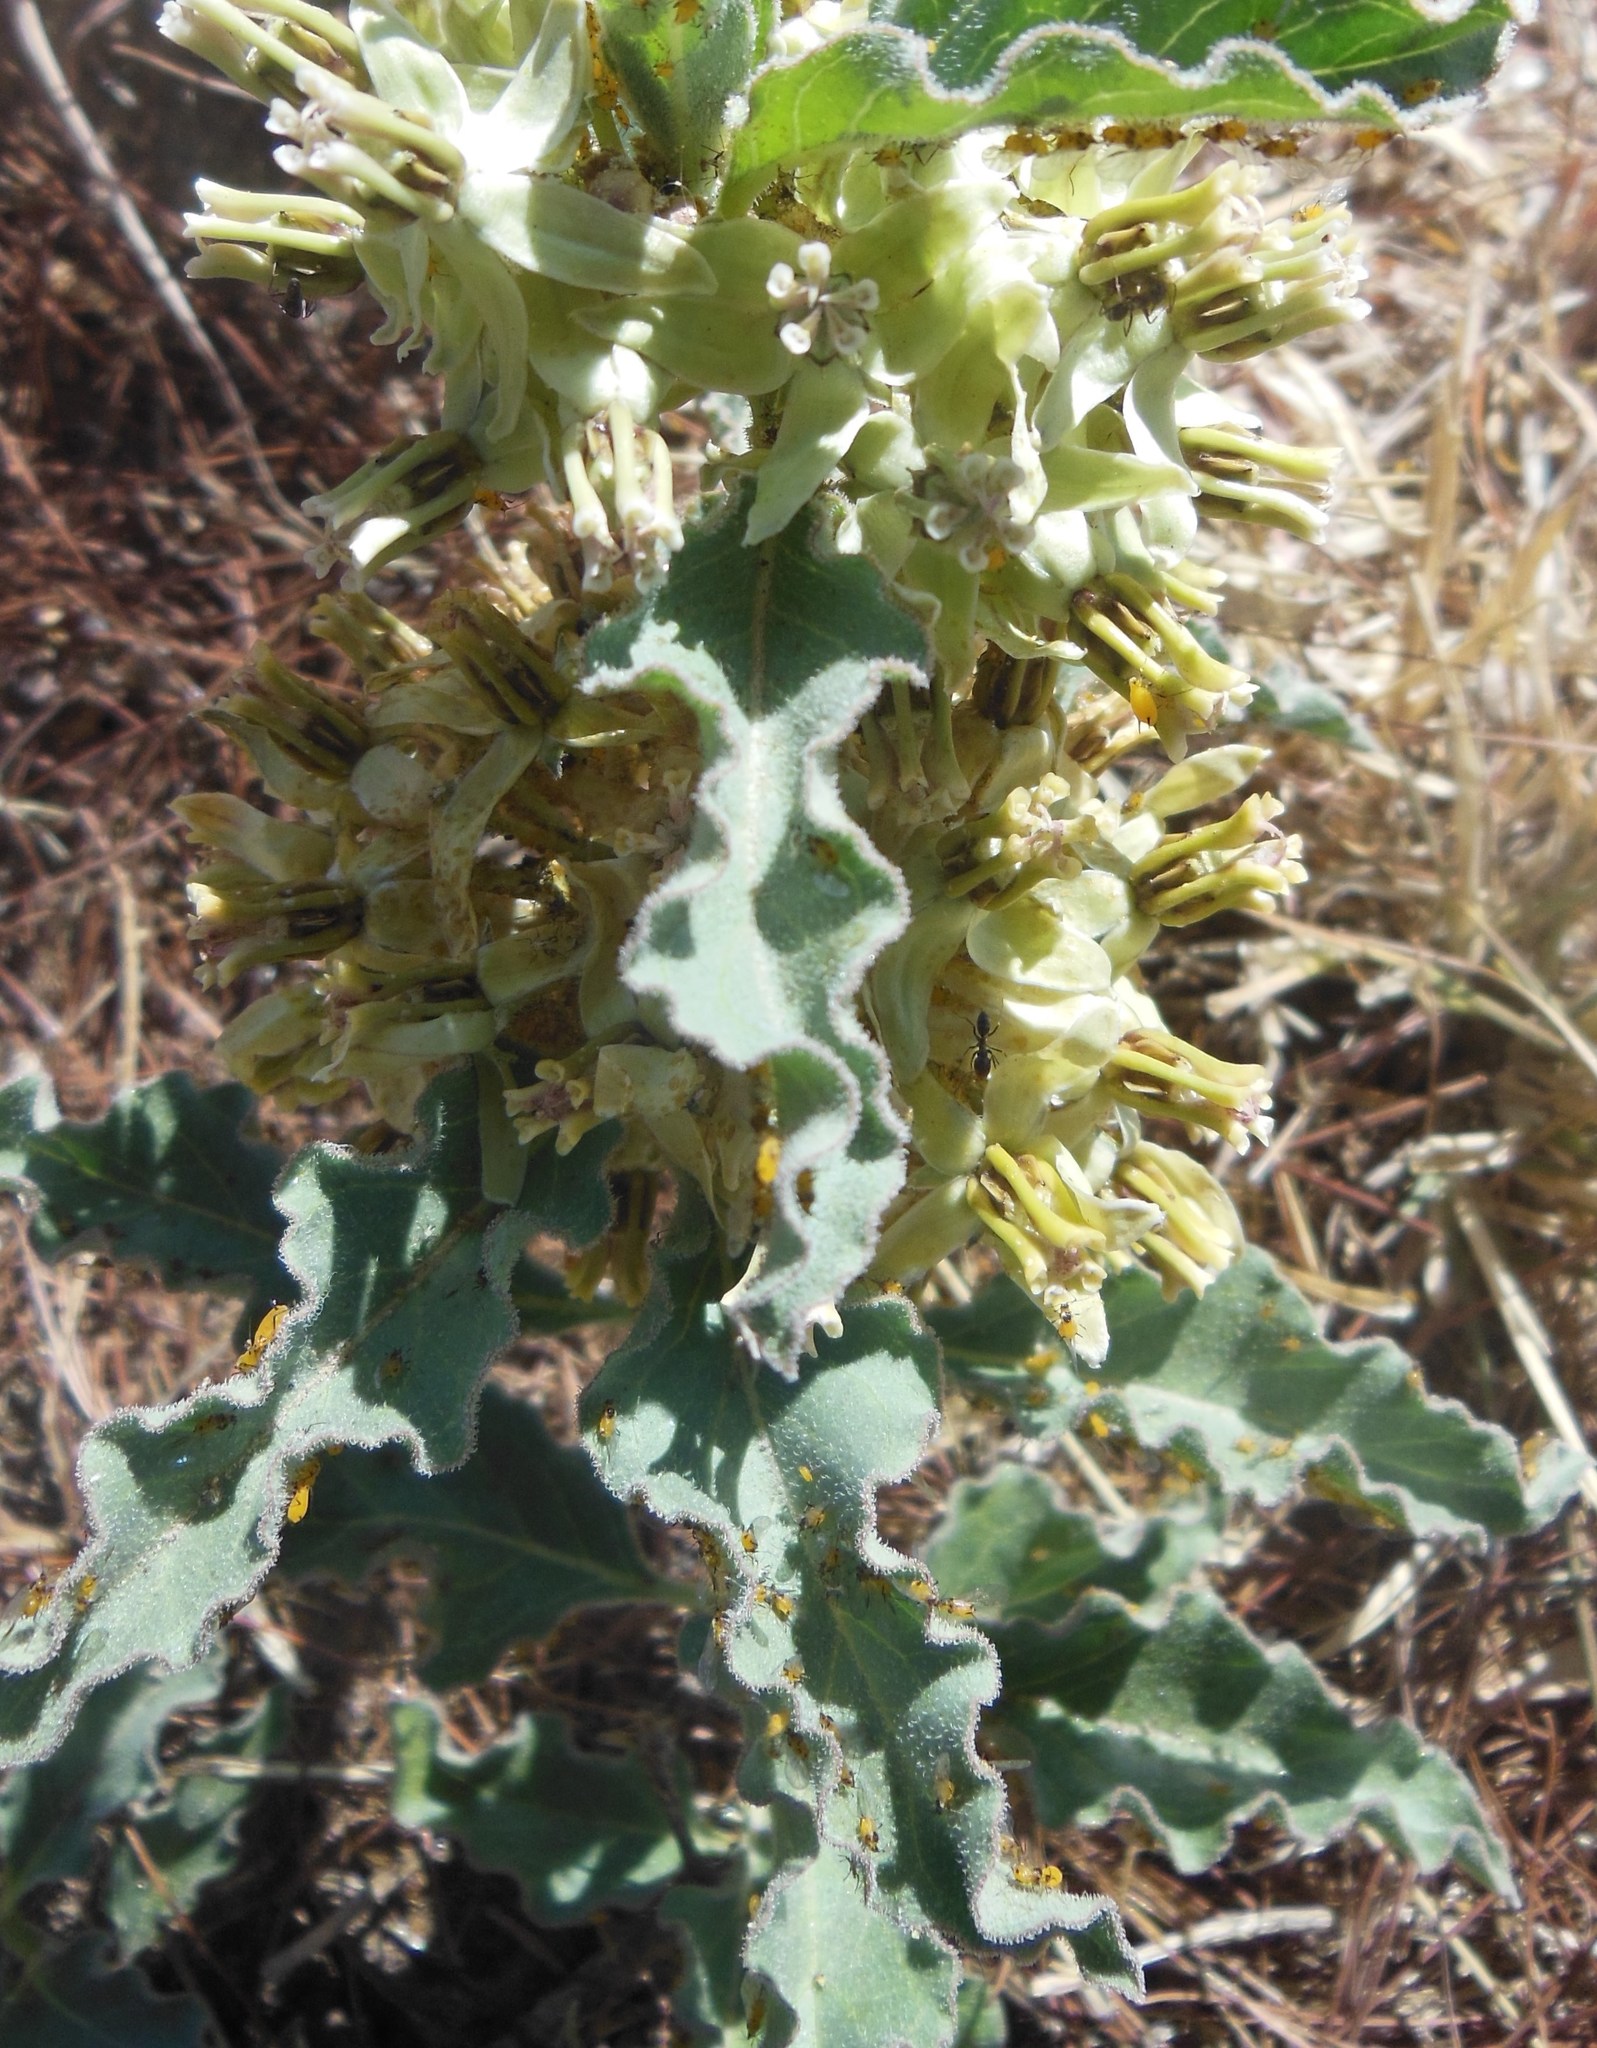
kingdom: Animalia
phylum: Arthropoda
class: Insecta
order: Hemiptera
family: Aphididae
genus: Aphis
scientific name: Aphis nerii
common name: Oleander aphid
